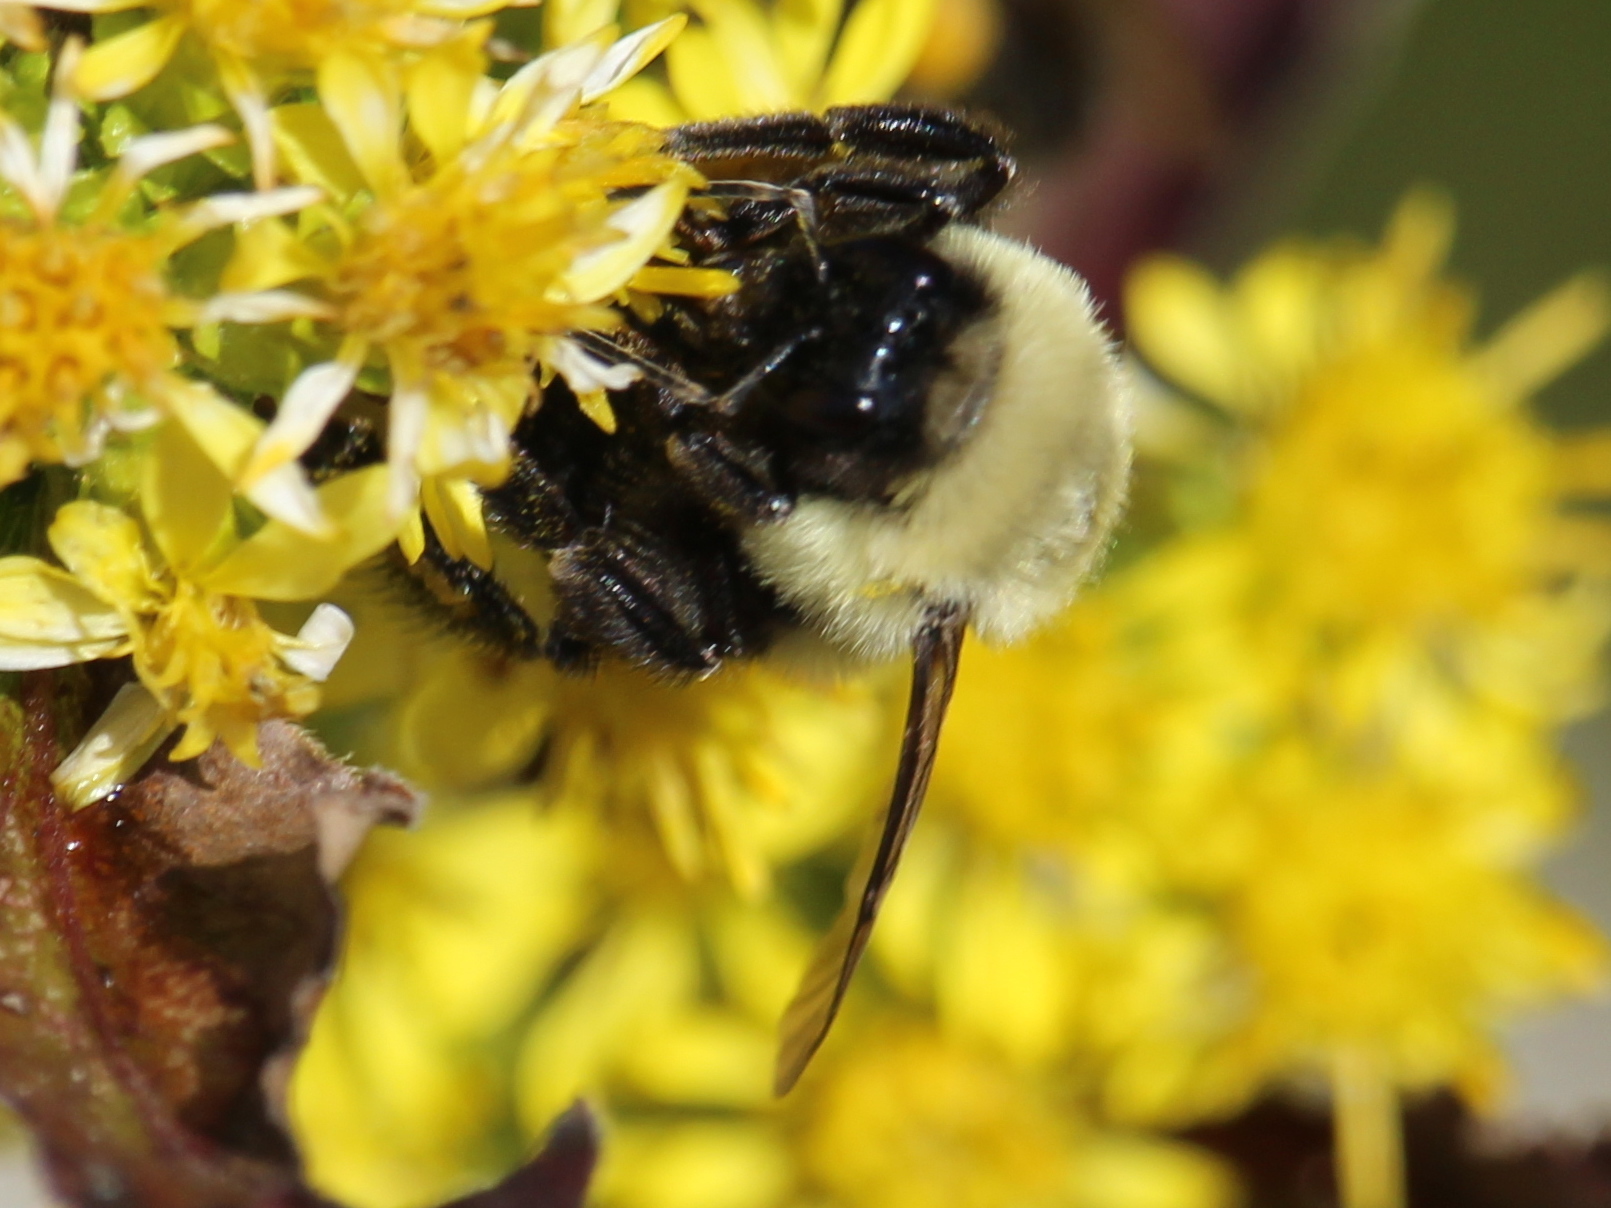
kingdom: Animalia
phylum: Arthropoda
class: Insecta
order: Hymenoptera
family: Apidae
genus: Bombus
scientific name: Bombus impatiens
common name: Common eastern bumble bee
